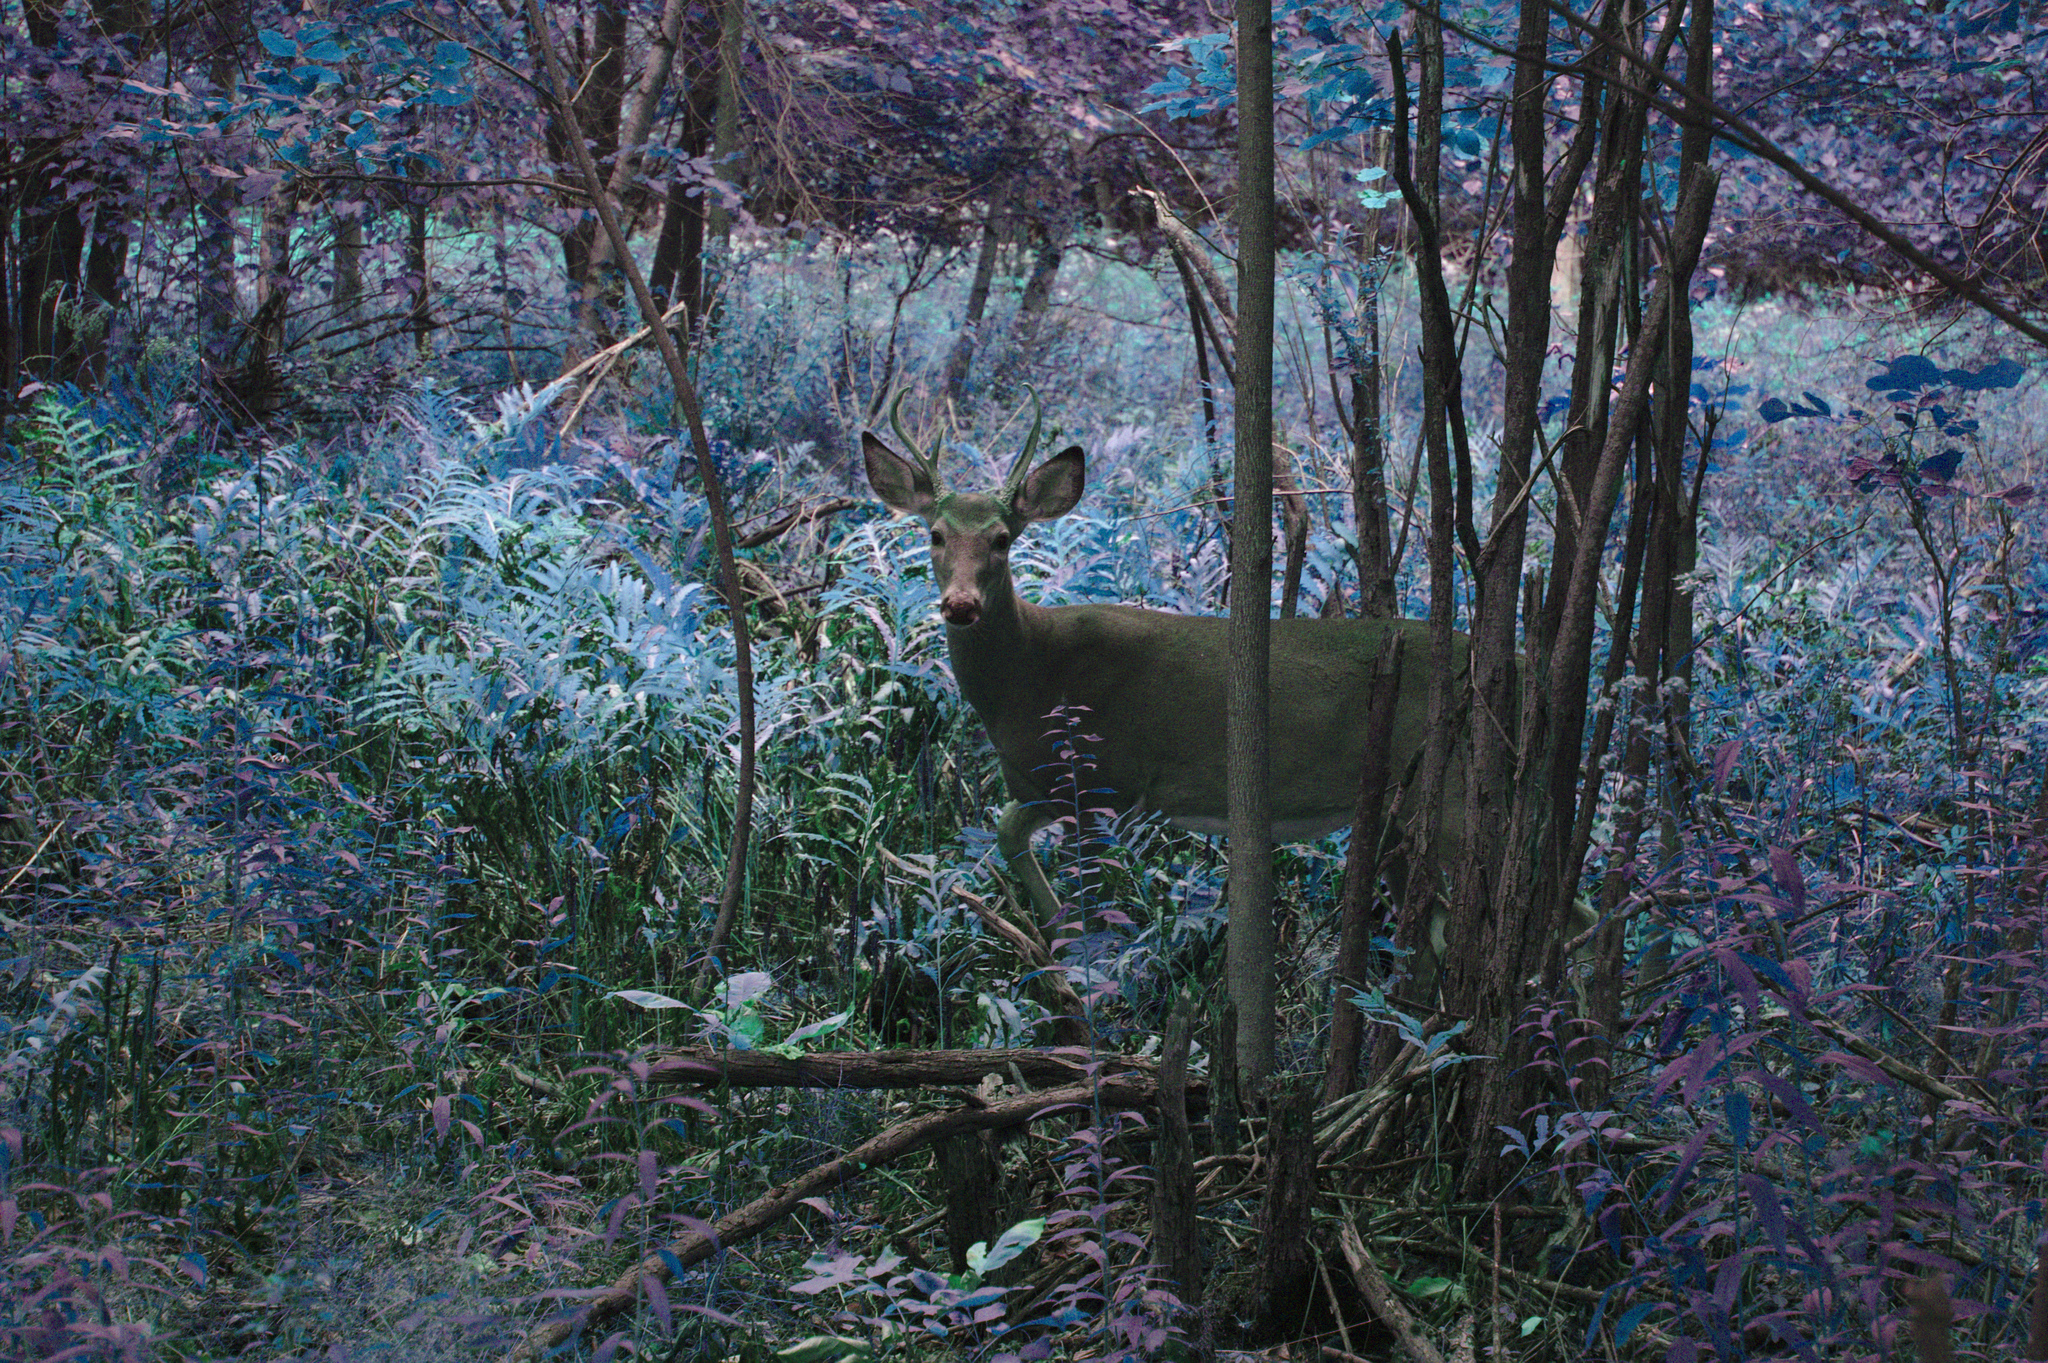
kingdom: Animalia
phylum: Chordata
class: Mammalia
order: Artiodactyla
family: Cervidae
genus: Odocoileus
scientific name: Odocoileus virginianus
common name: White-tailed deer
